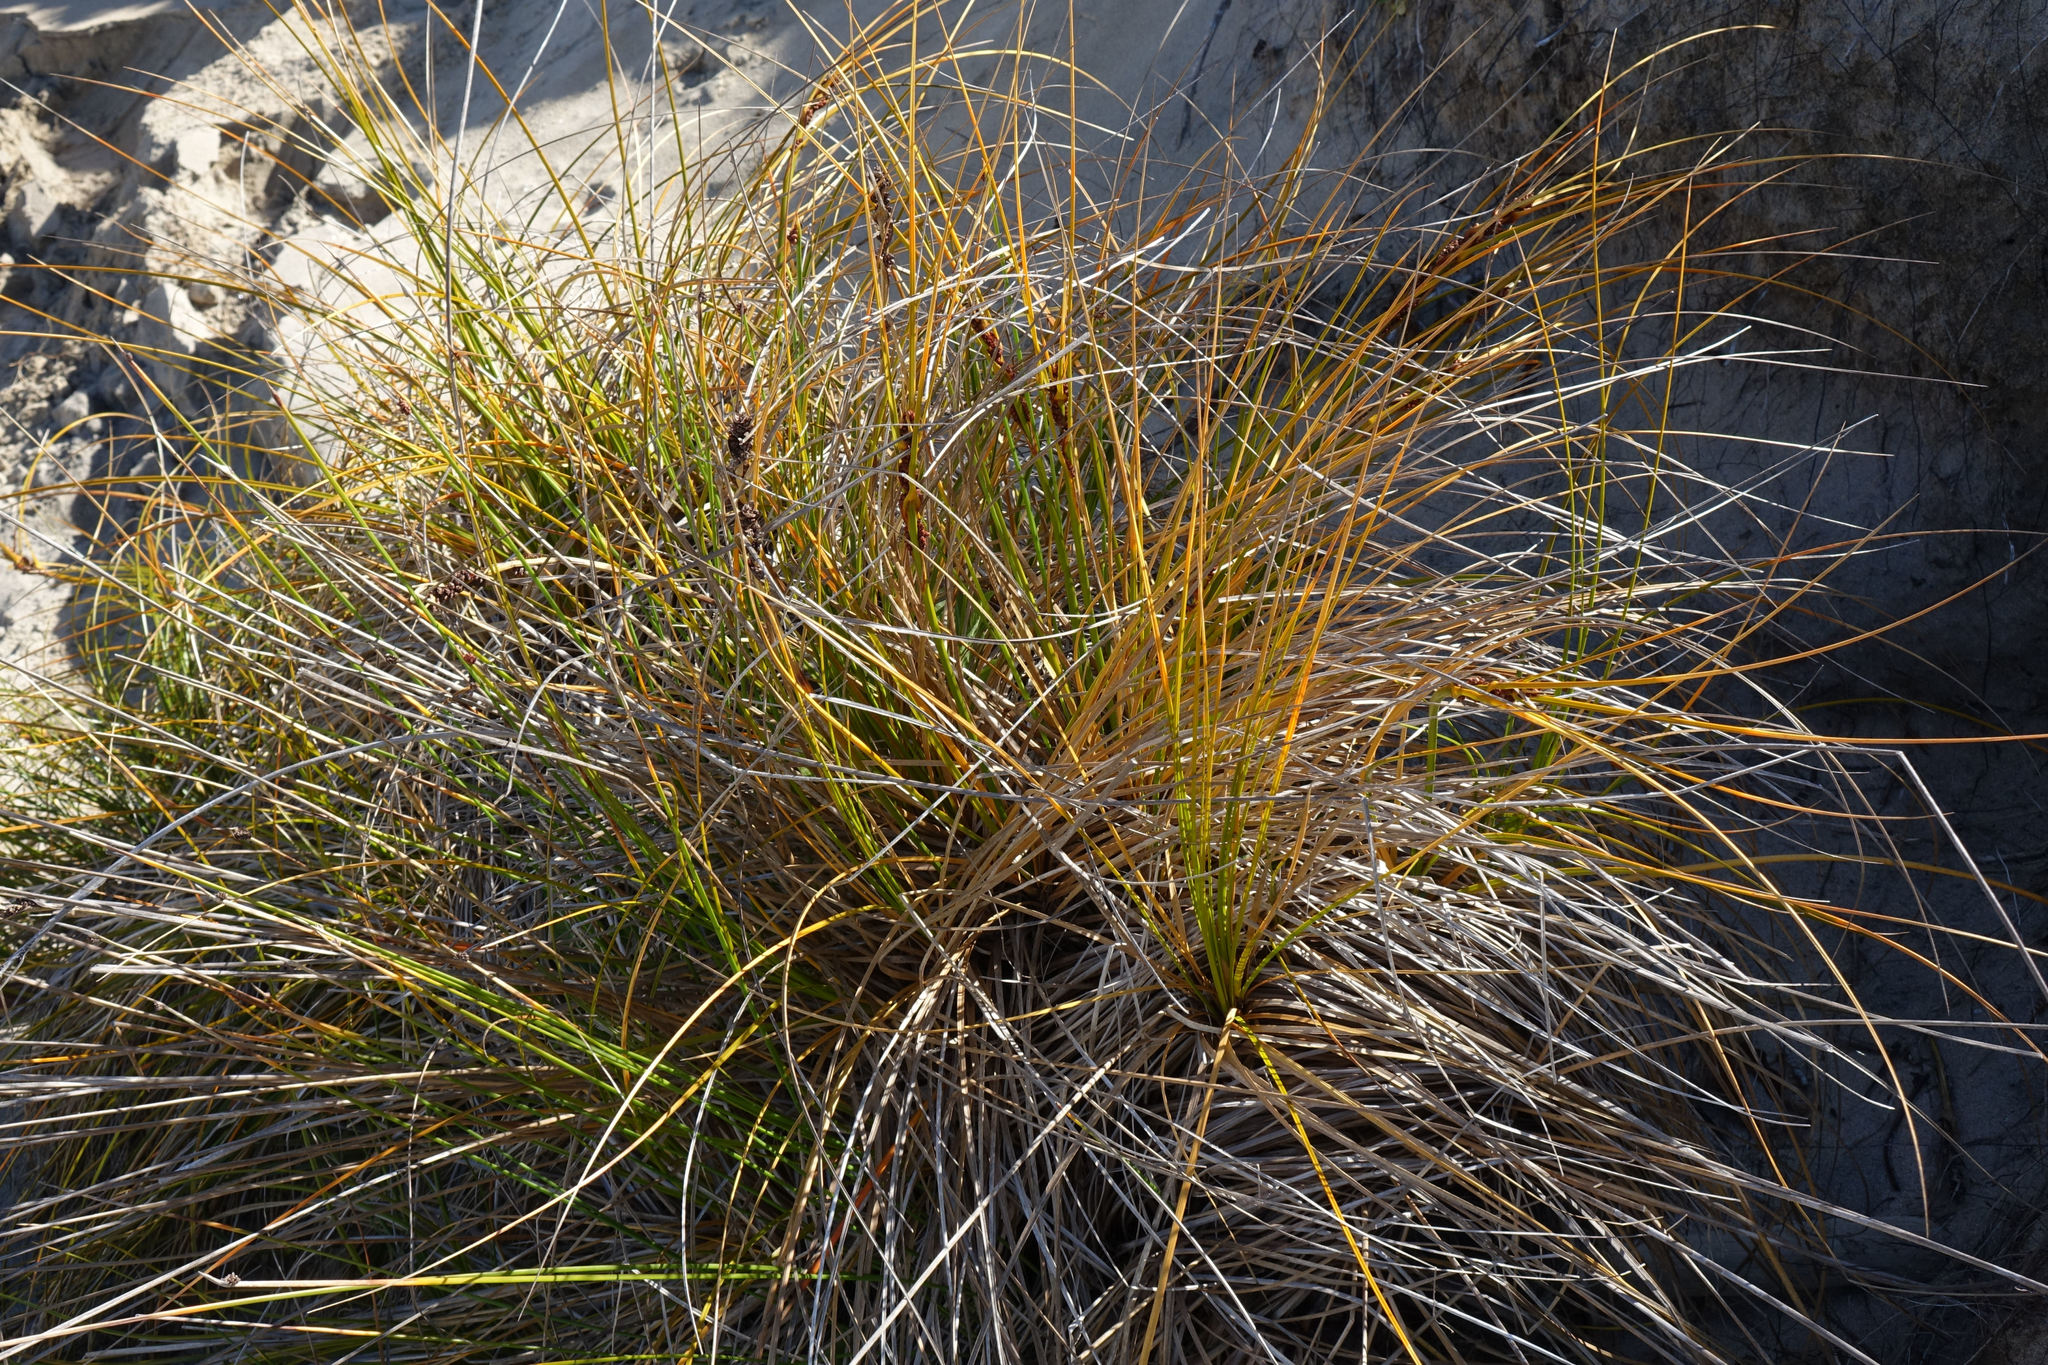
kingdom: Plantae
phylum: Tracheophyta
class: Liliopsida
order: Poales
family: Cyperaceae
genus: Ficinia
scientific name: Ficinia spiralis
